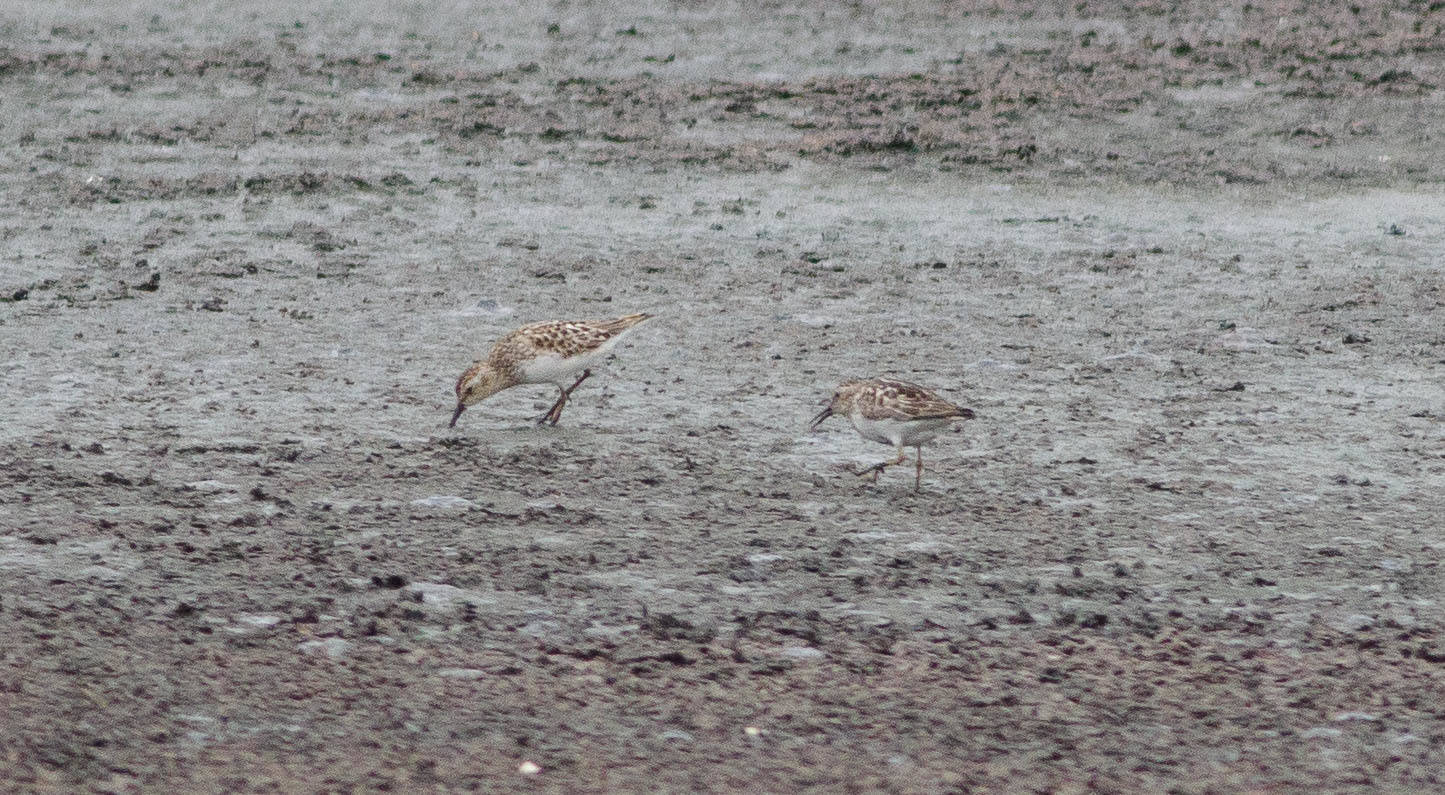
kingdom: Animalia
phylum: Chordata
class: Aves
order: Charadriiformes
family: Scolopacidae
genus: Calidris
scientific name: Calidris minutilla
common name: Least sandpiper
